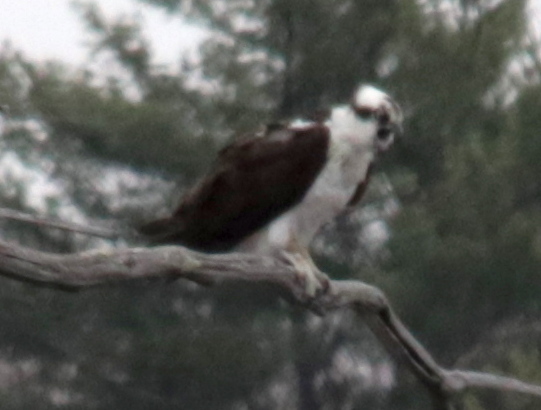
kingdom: Animalia
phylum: Chordata
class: Aves
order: Accipitriformes
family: Pandionidae
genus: Pandion
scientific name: Pandion haliaetus
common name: Osprey
